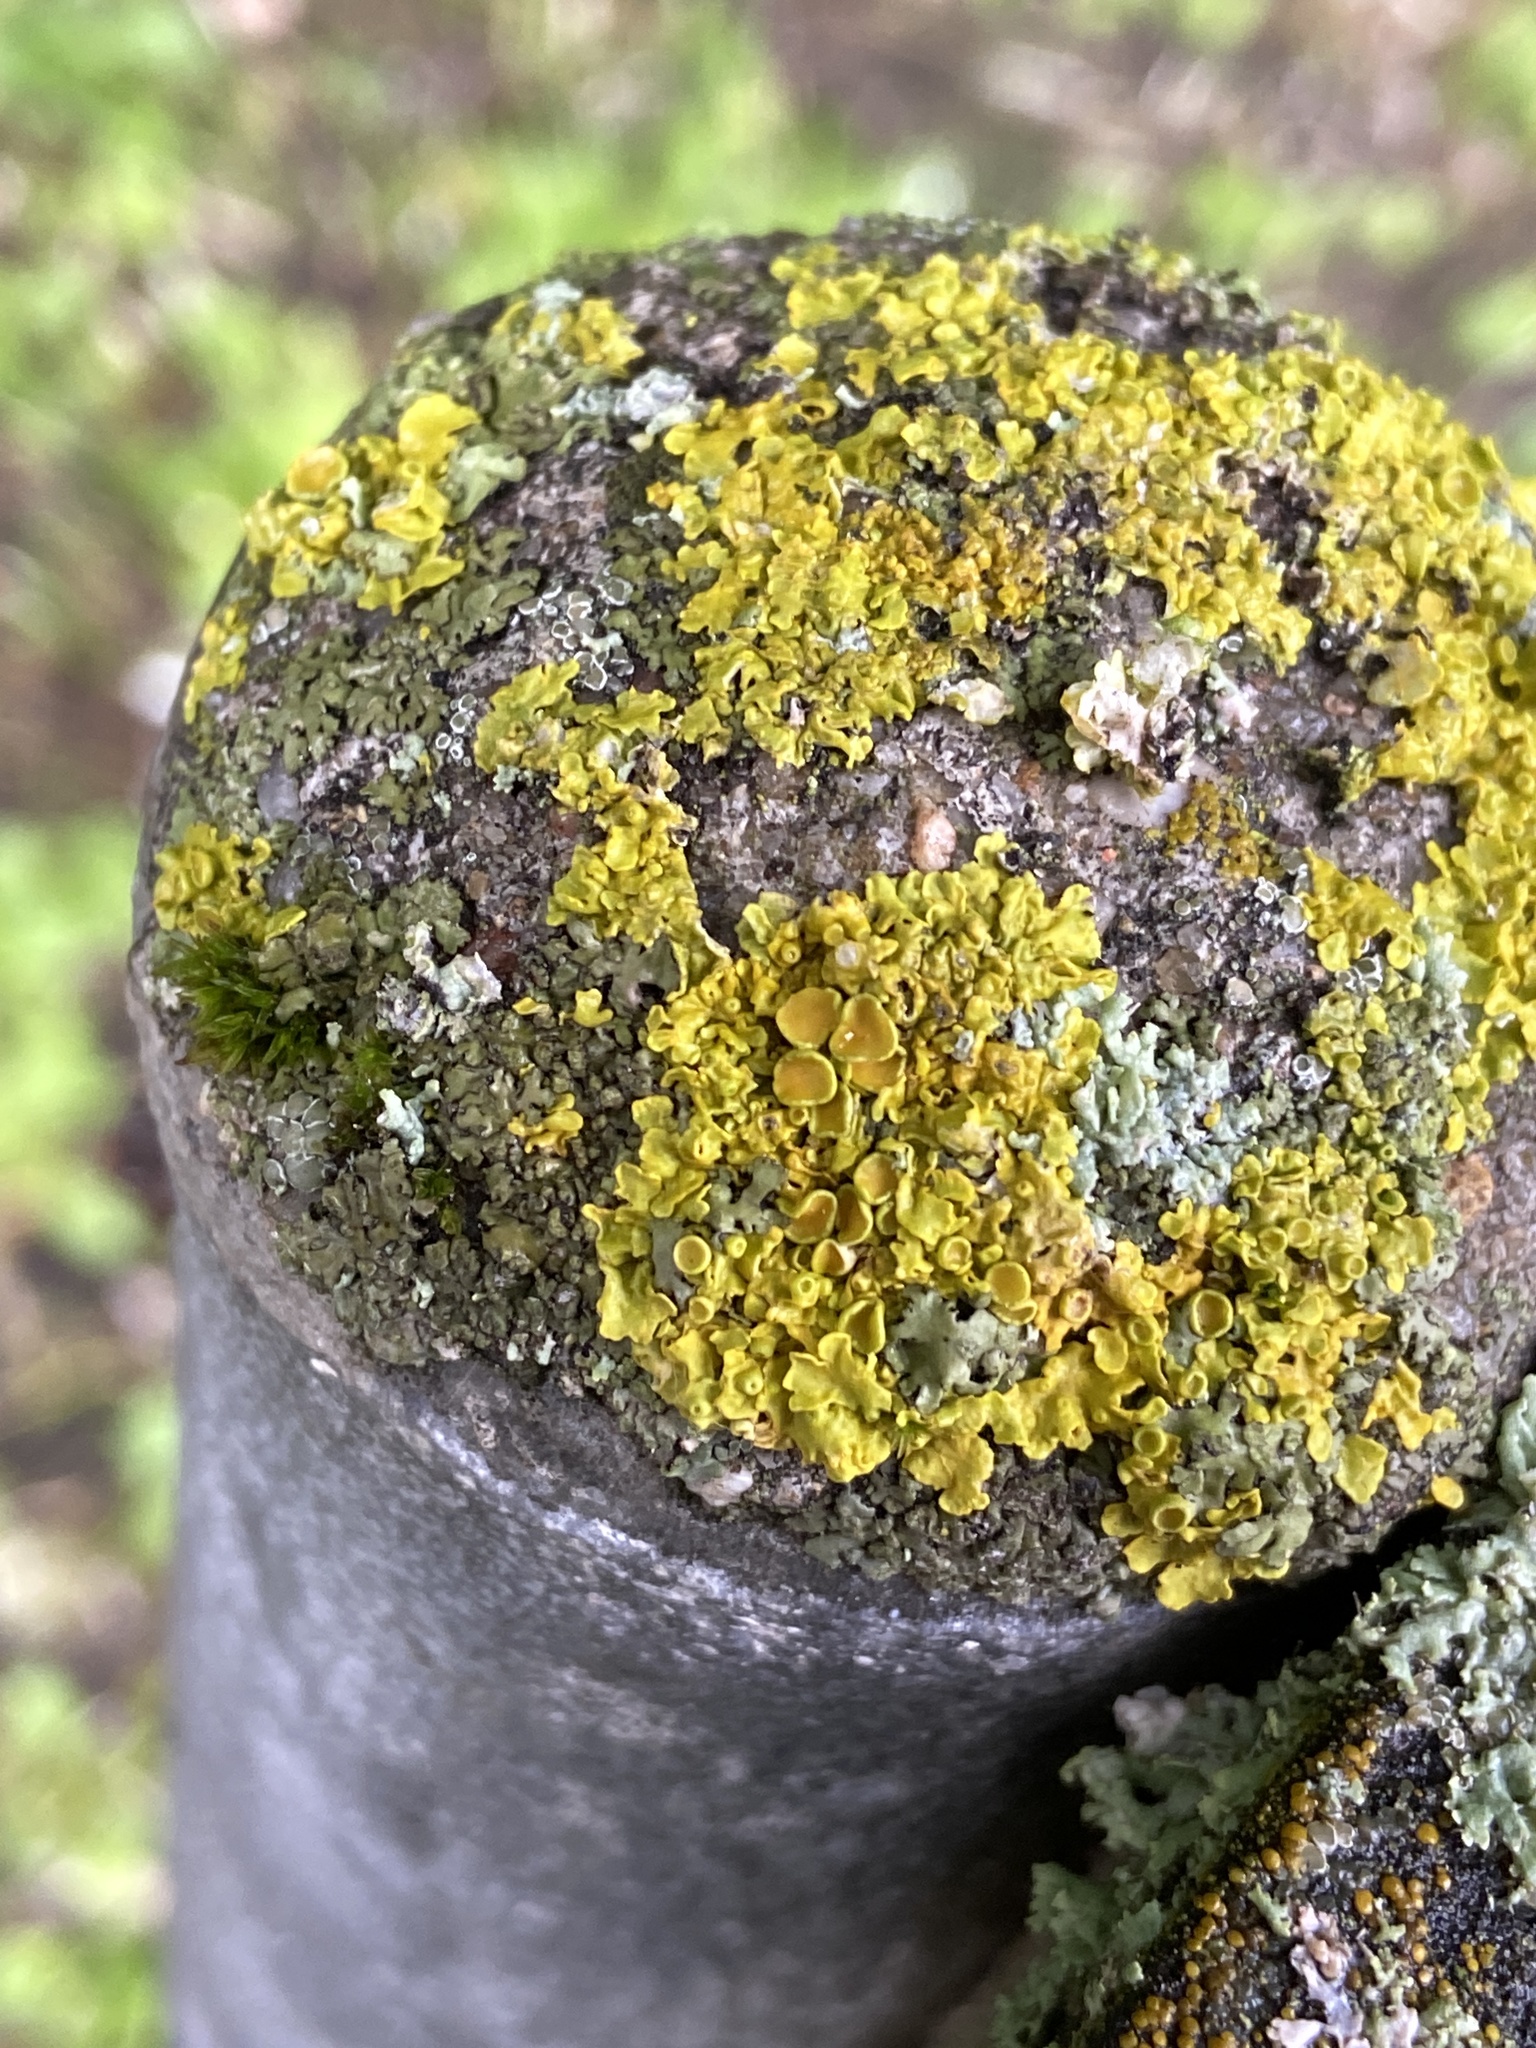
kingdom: Fungi
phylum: Ascomycota
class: Lecanoromycetes
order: Teloschistales
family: Teloschistaceae
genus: Xanthoria
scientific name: Xanthoria parietina
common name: Common orange lichen
